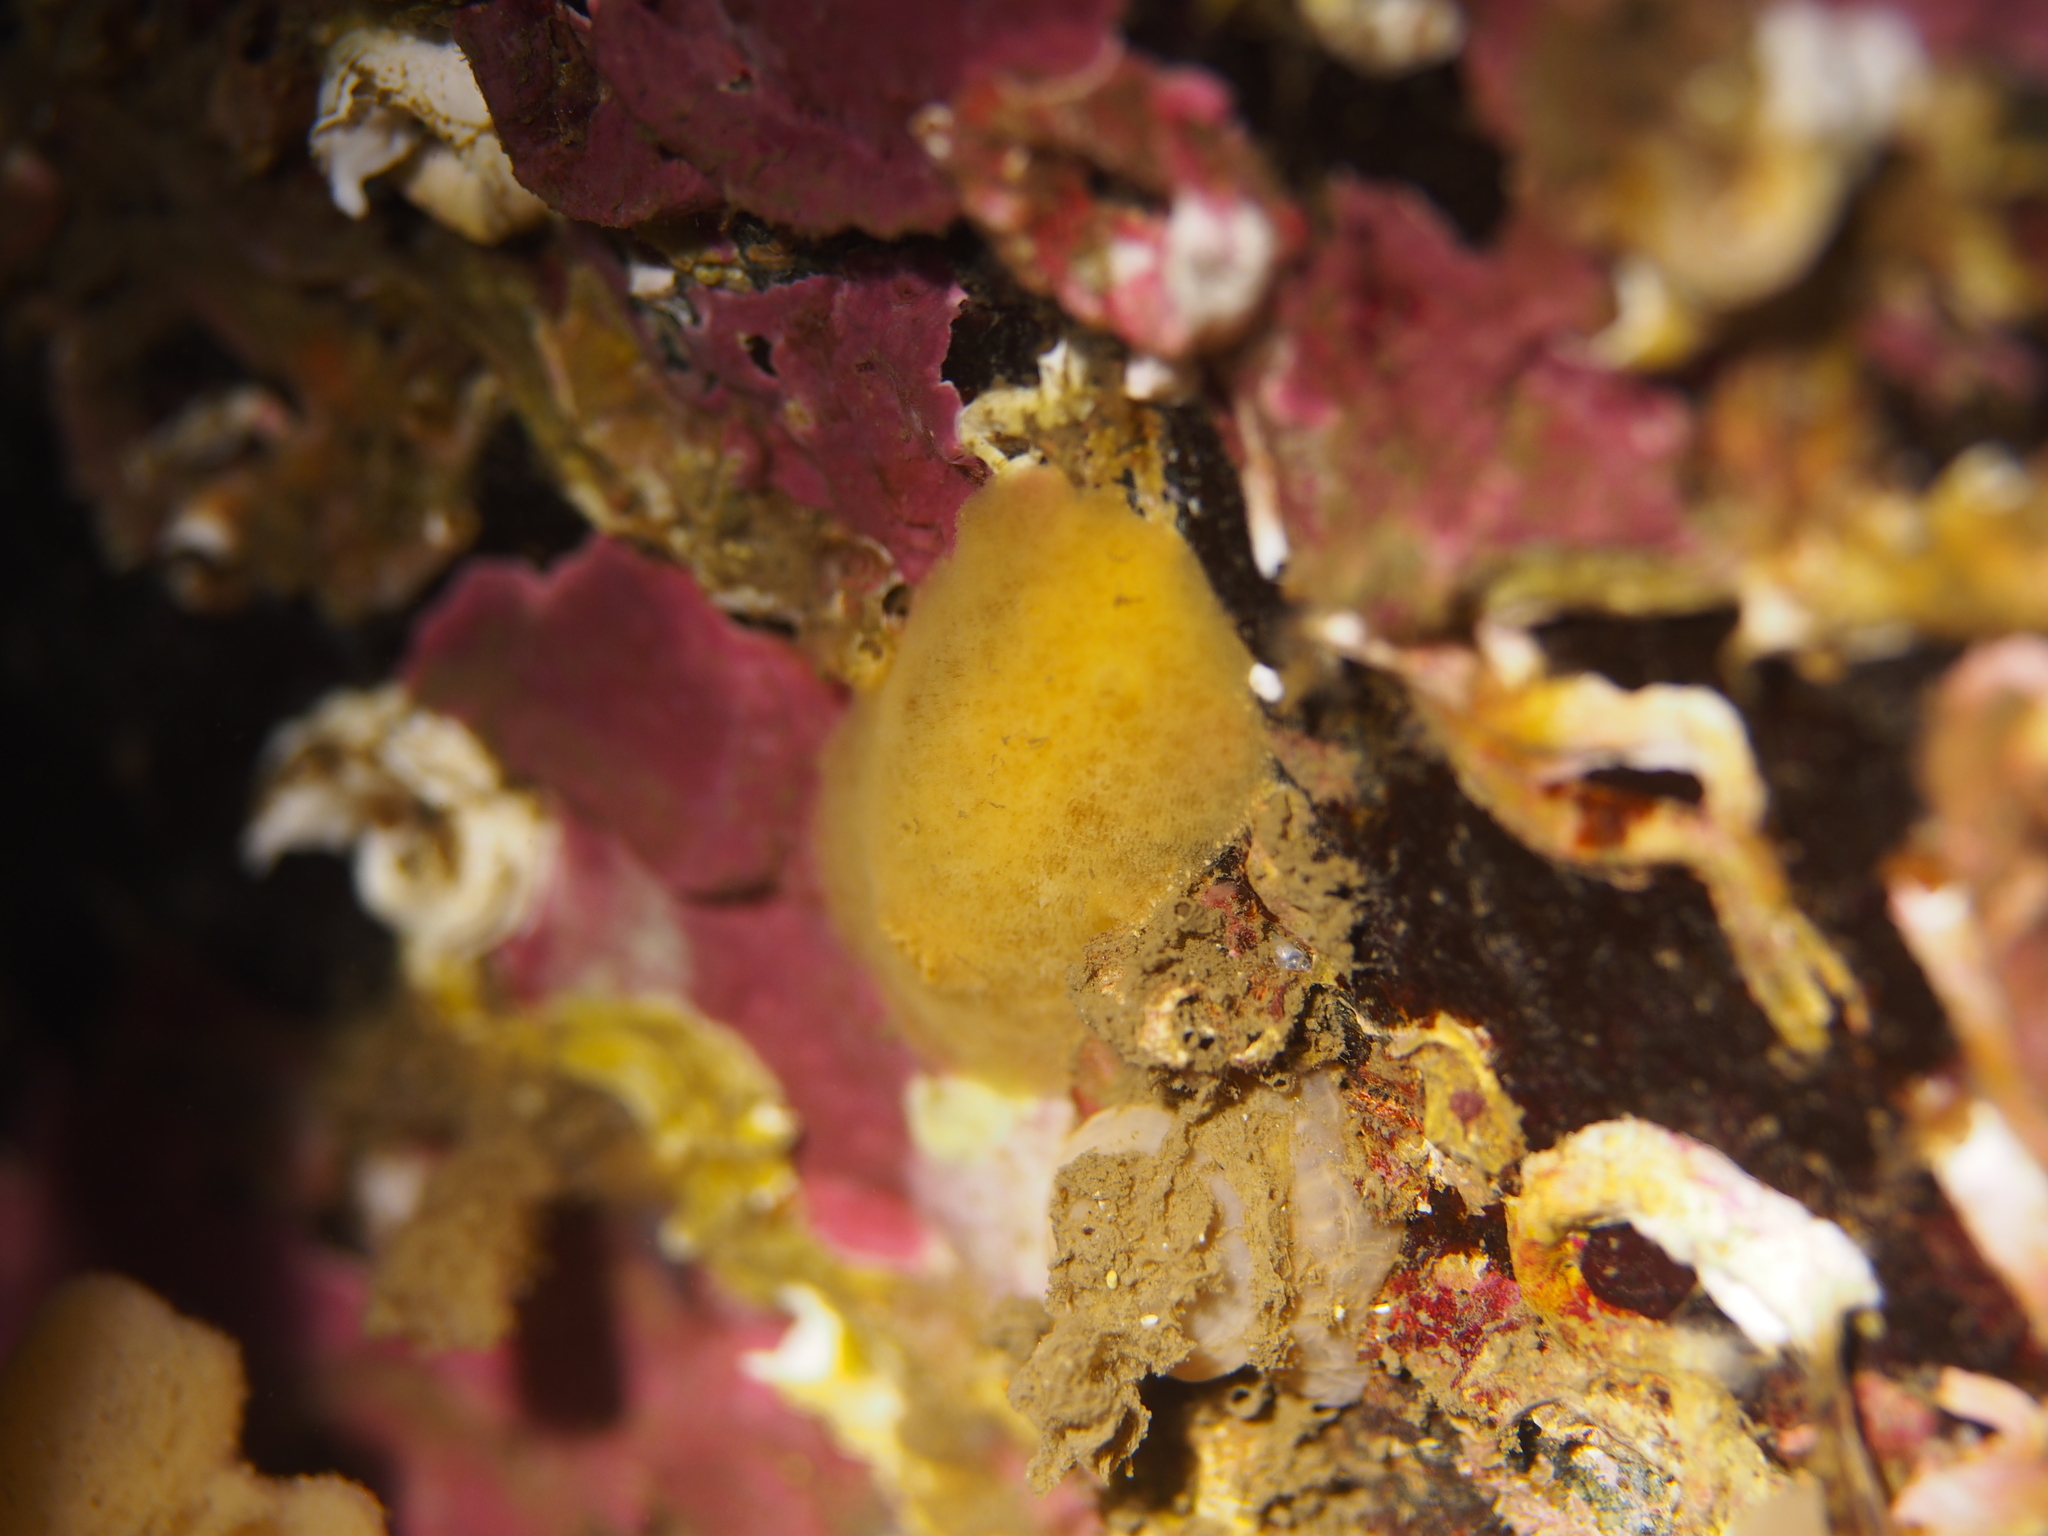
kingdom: Animalia
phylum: Mollusca
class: Gastropoda
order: Nudibranchia
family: Discodorididae
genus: Jorunna
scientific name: Jorunna tomentosa
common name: Grey sea slug
